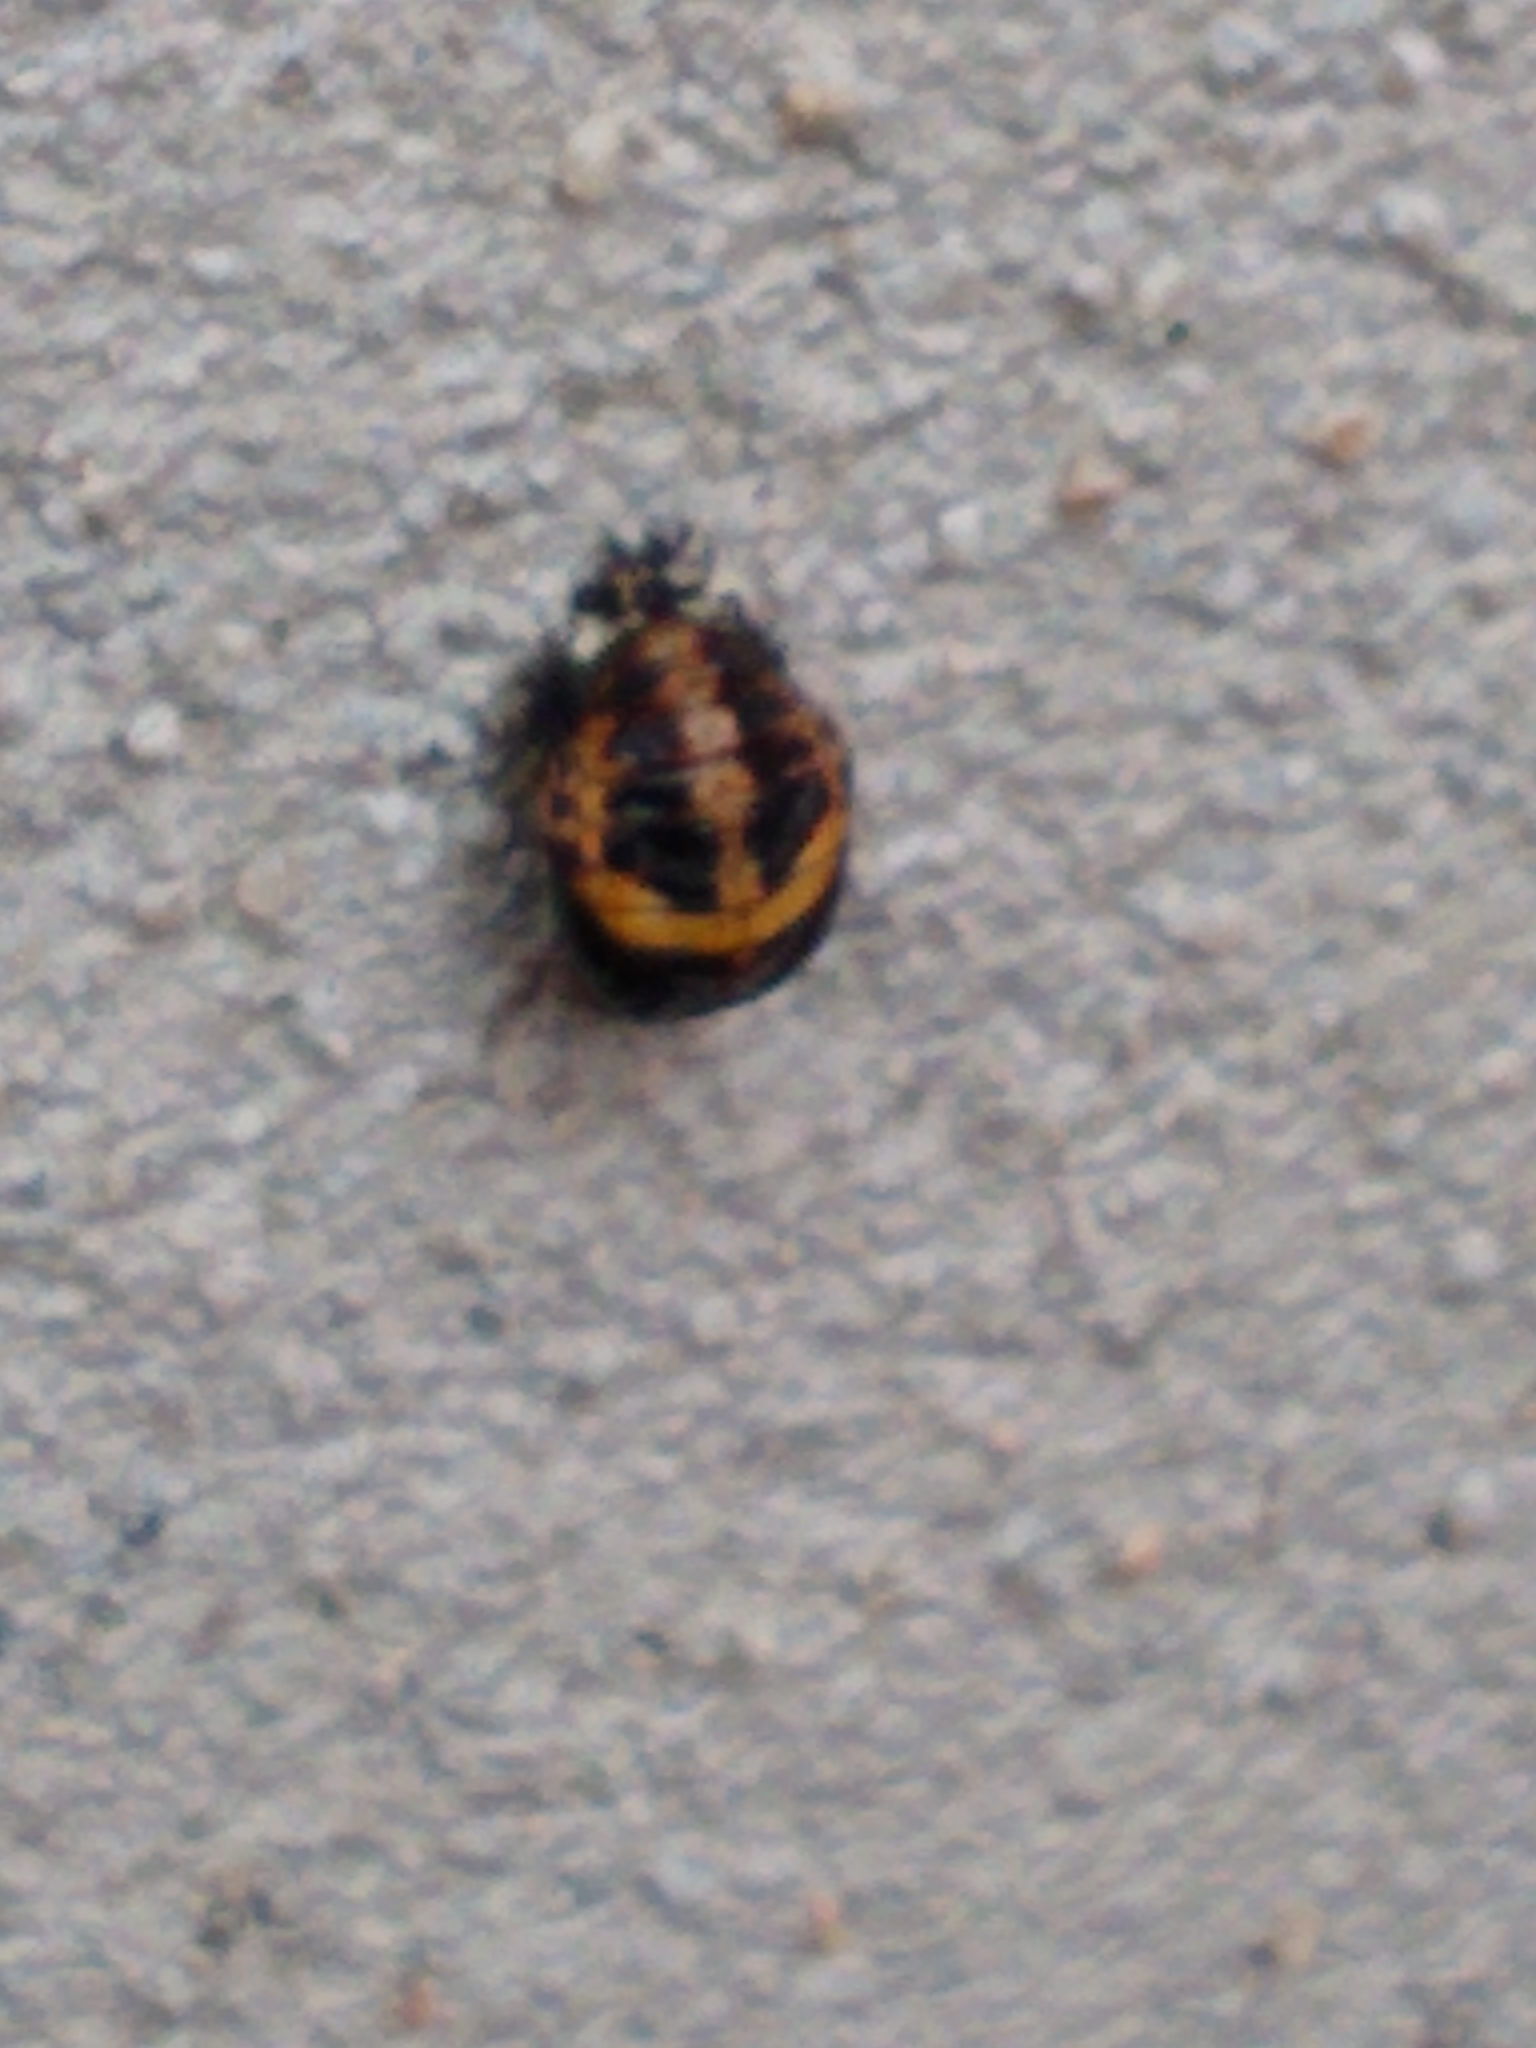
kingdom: Animalia
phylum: Arthropoda
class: Insecta
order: Coleoptera
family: Coccinellidae
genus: Harmonia
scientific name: Harmonia axyridis
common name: Harlequin ladybird
